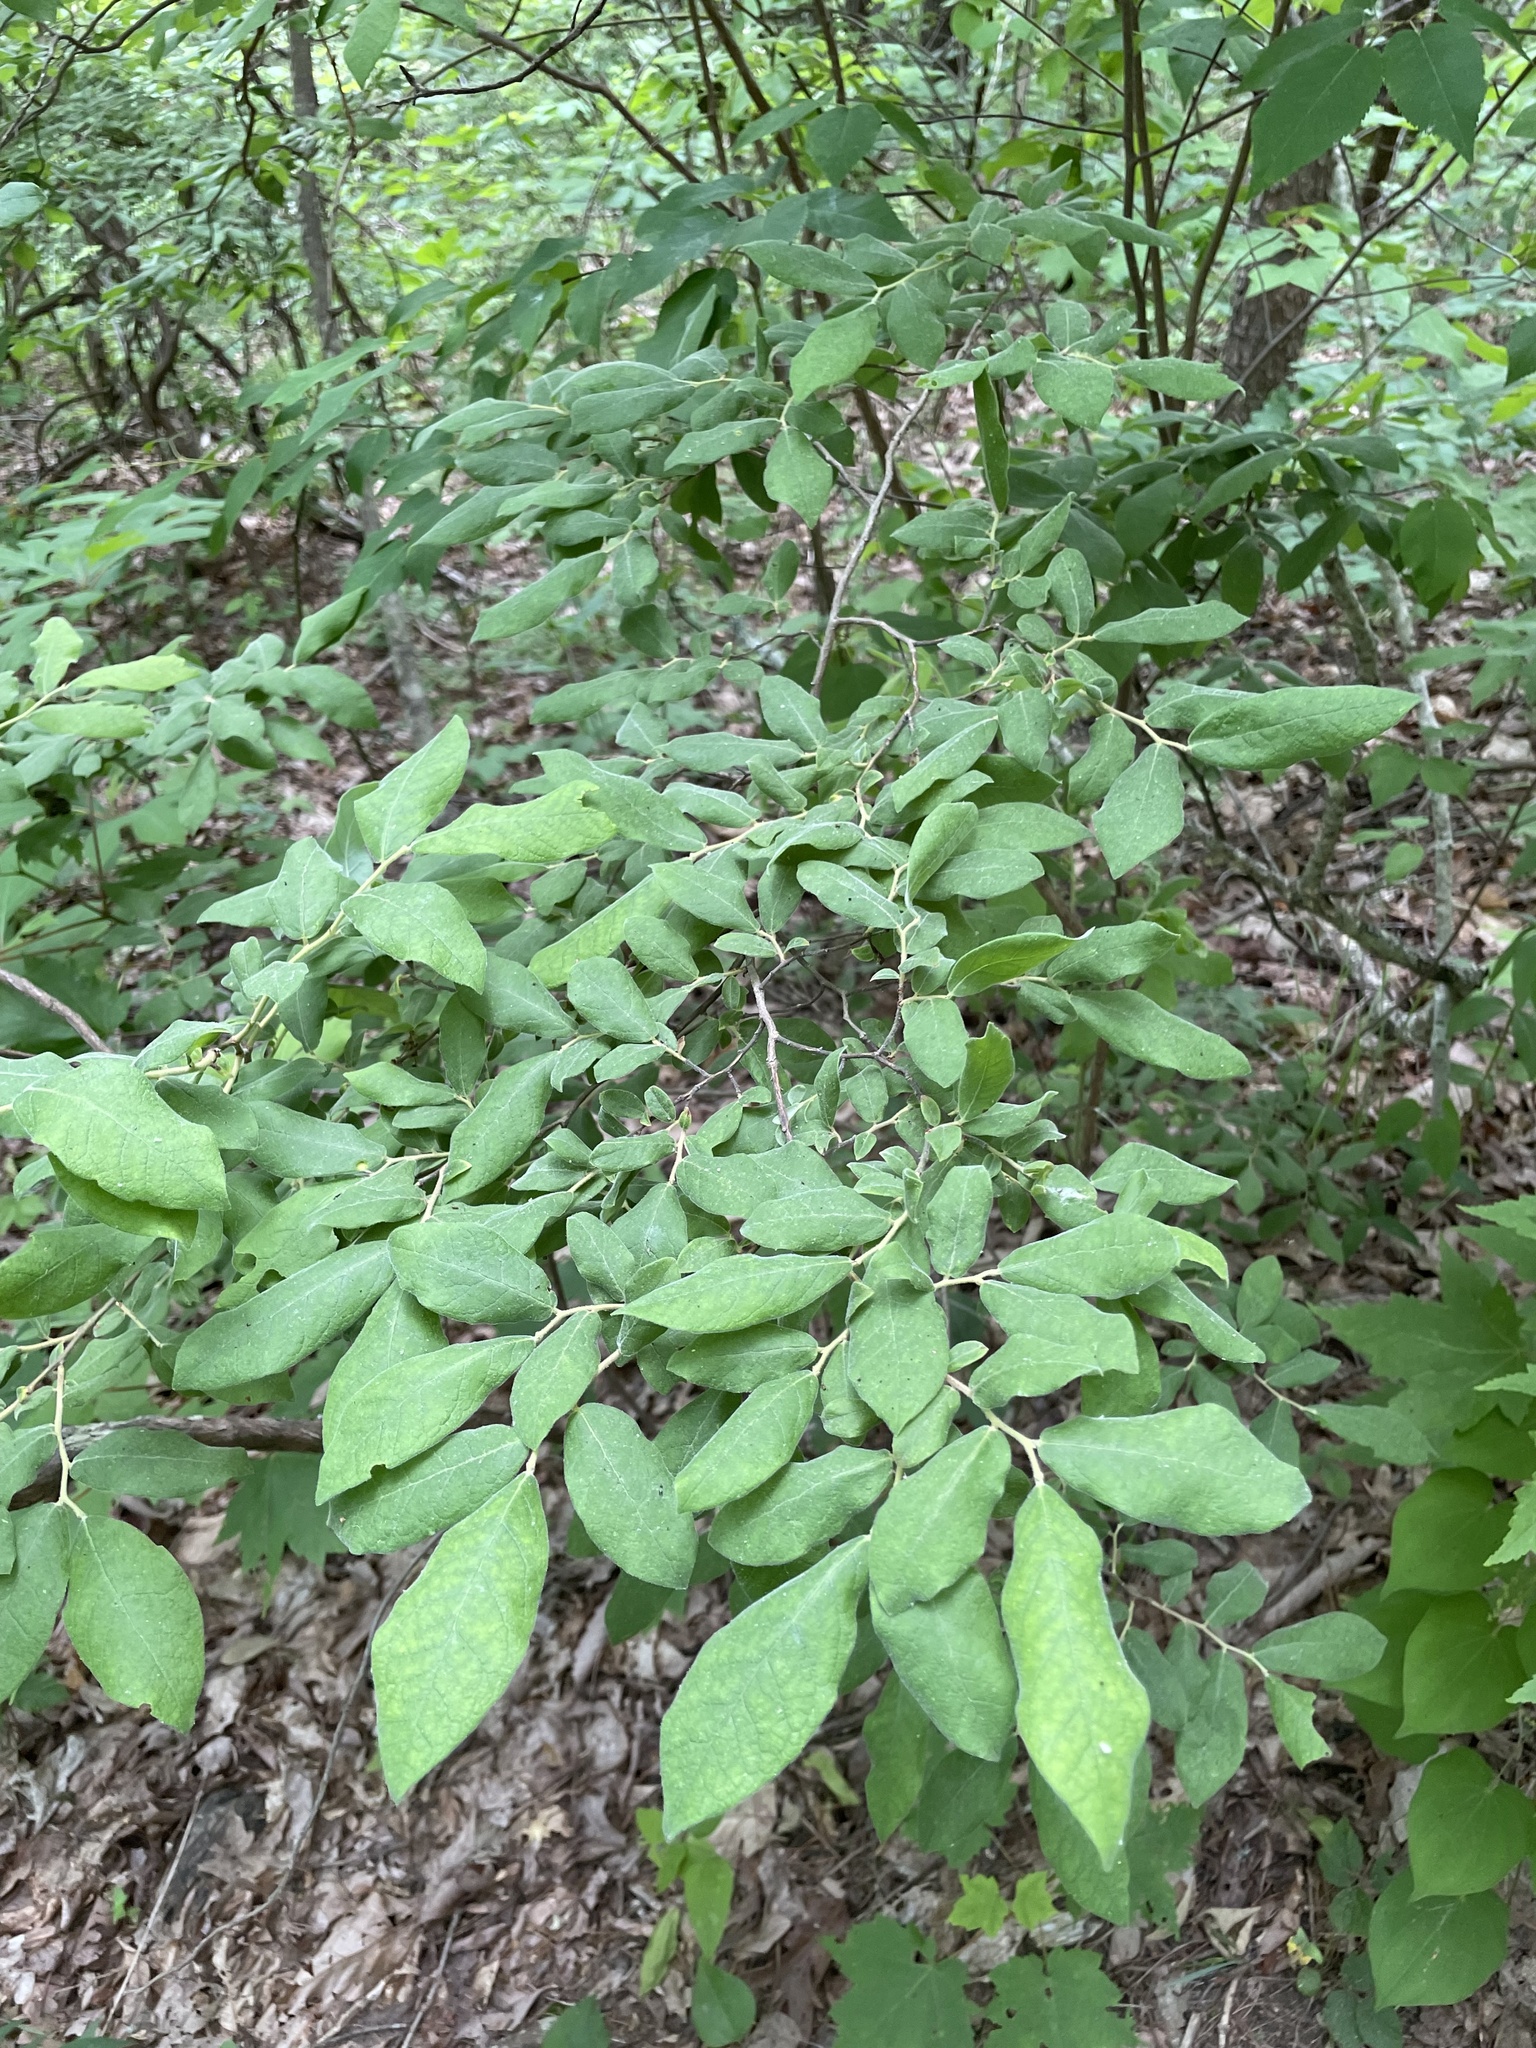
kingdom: Plantae
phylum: Tracheophyta
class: Magnoliopsida
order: Ericales
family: Ericaceae
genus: Vaccinium
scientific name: Vaccinium stamineum
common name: Deerberry
